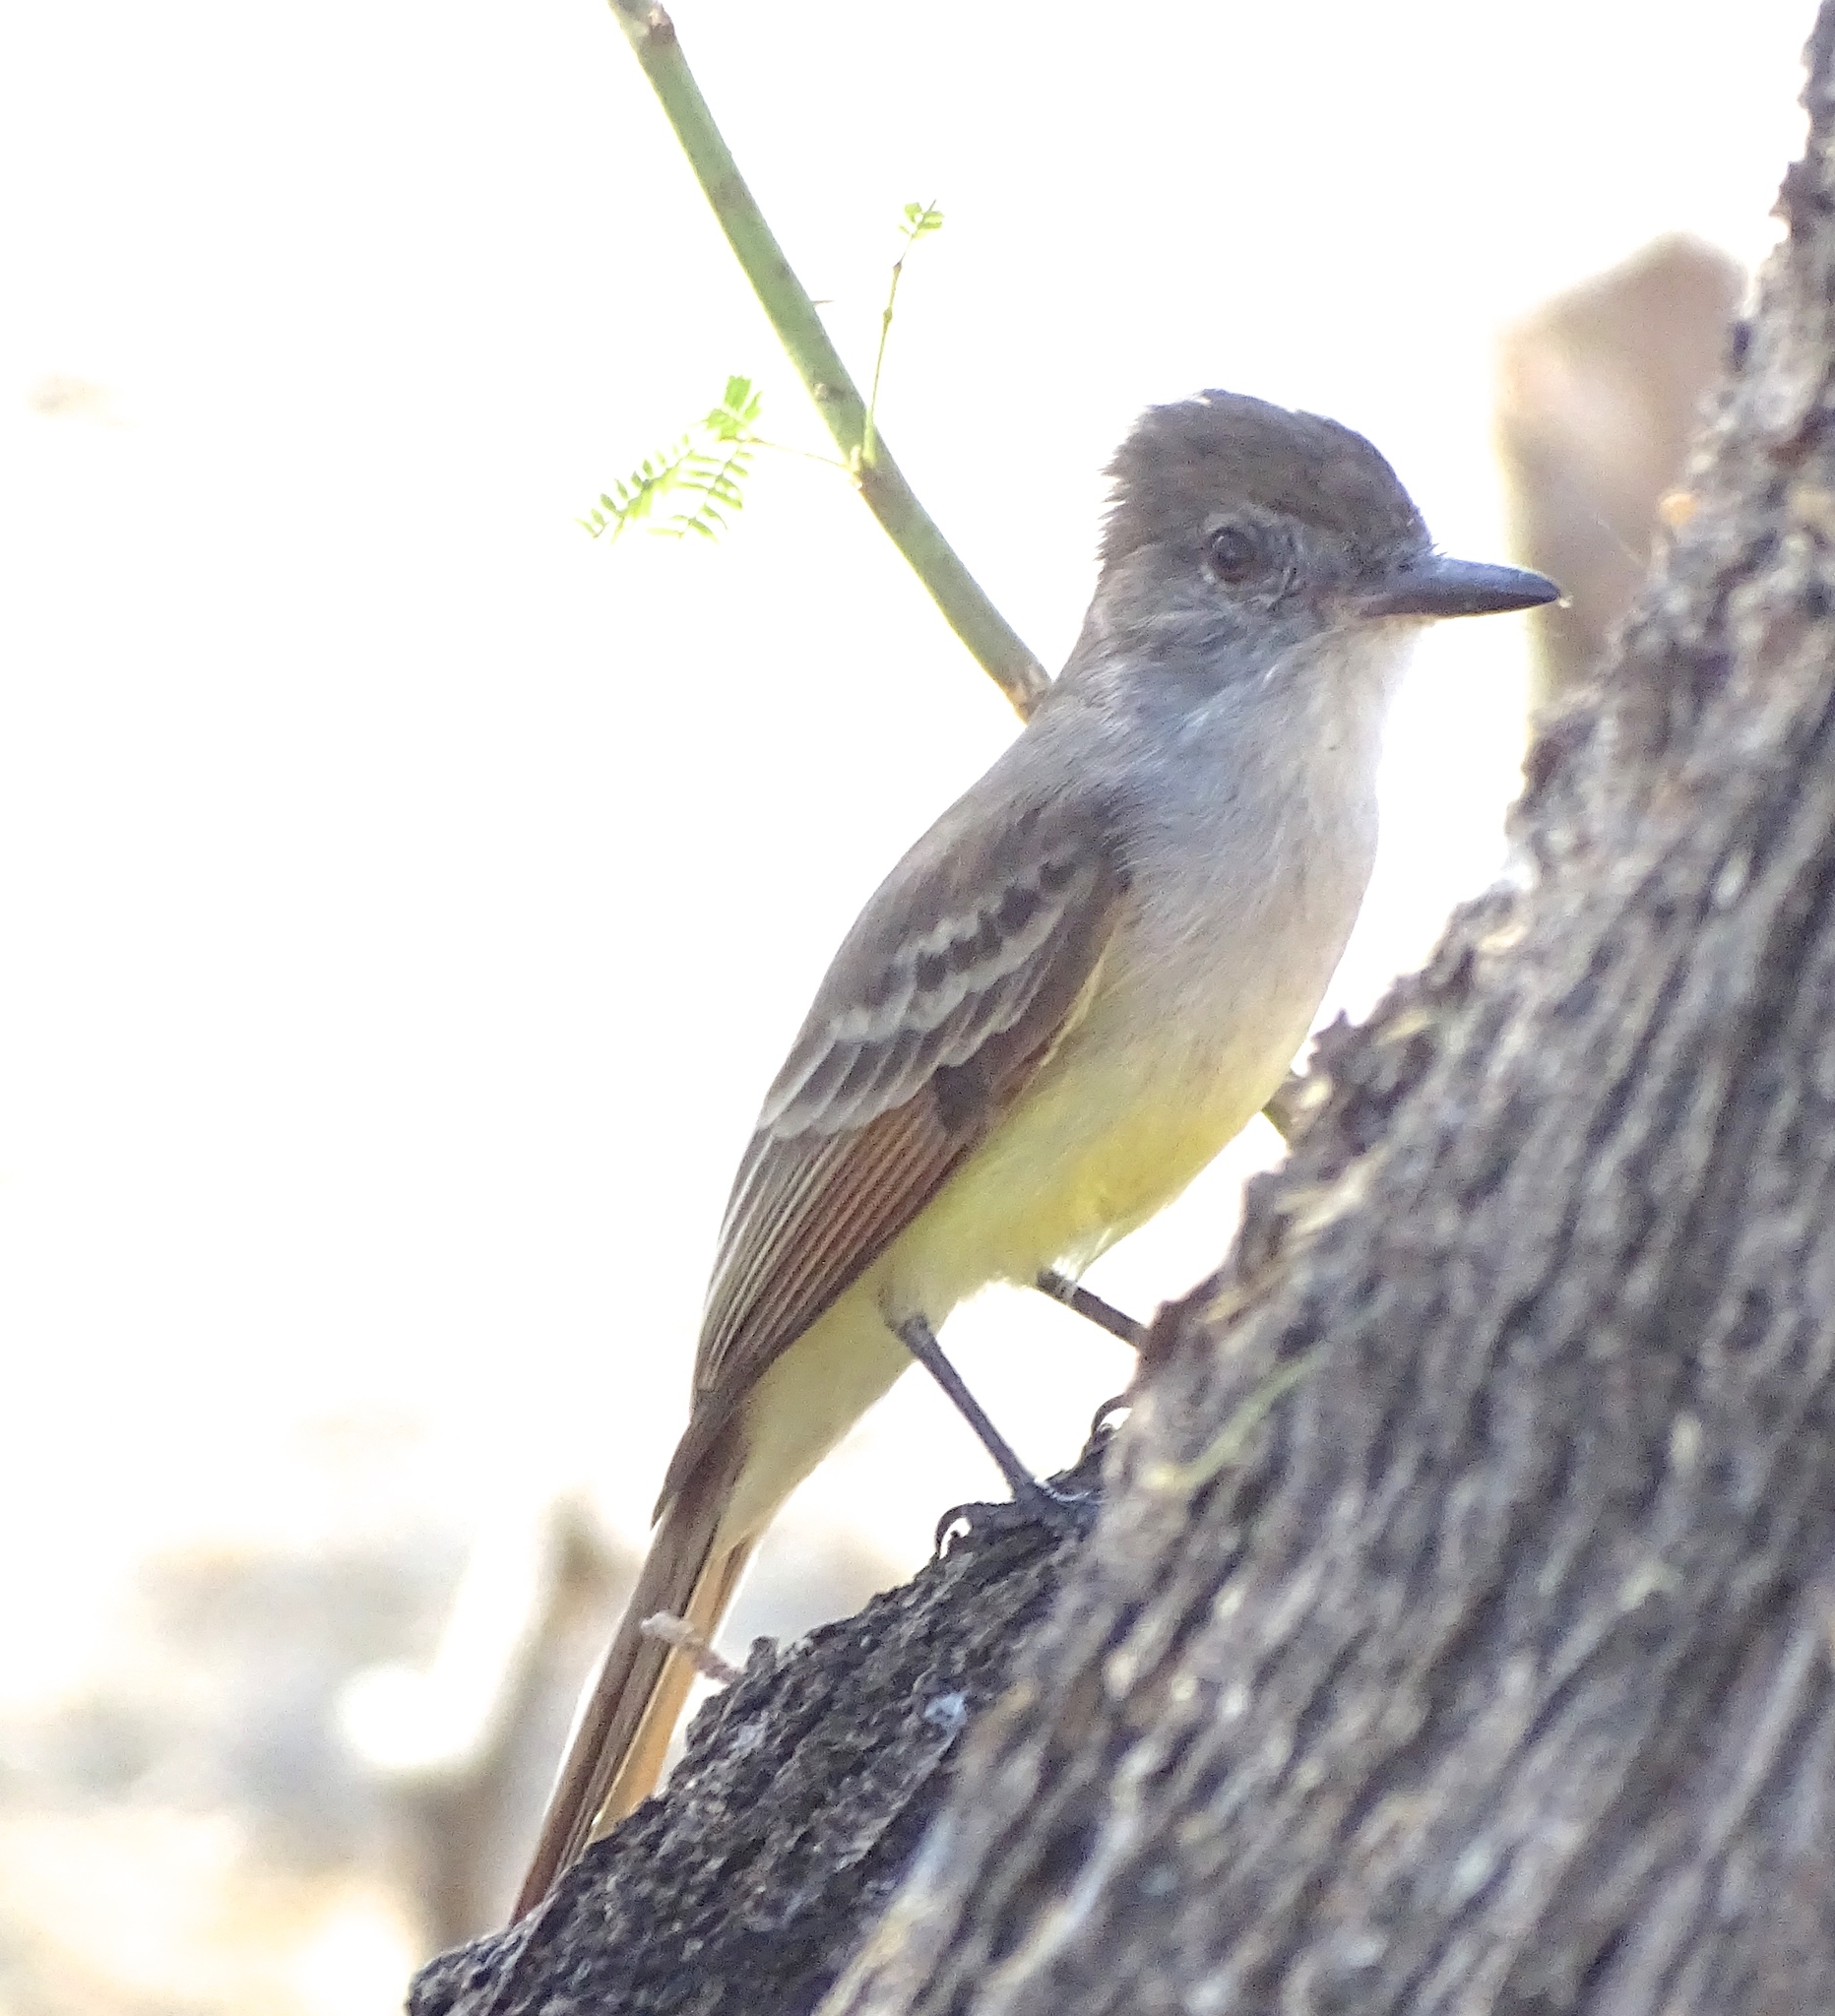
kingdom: Animalia
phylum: Chordata
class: Aves
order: Passeriformes
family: Tyrannidae
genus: Myiarchus
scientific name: Myiarchus stolidus
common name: Stolid flycatcher
